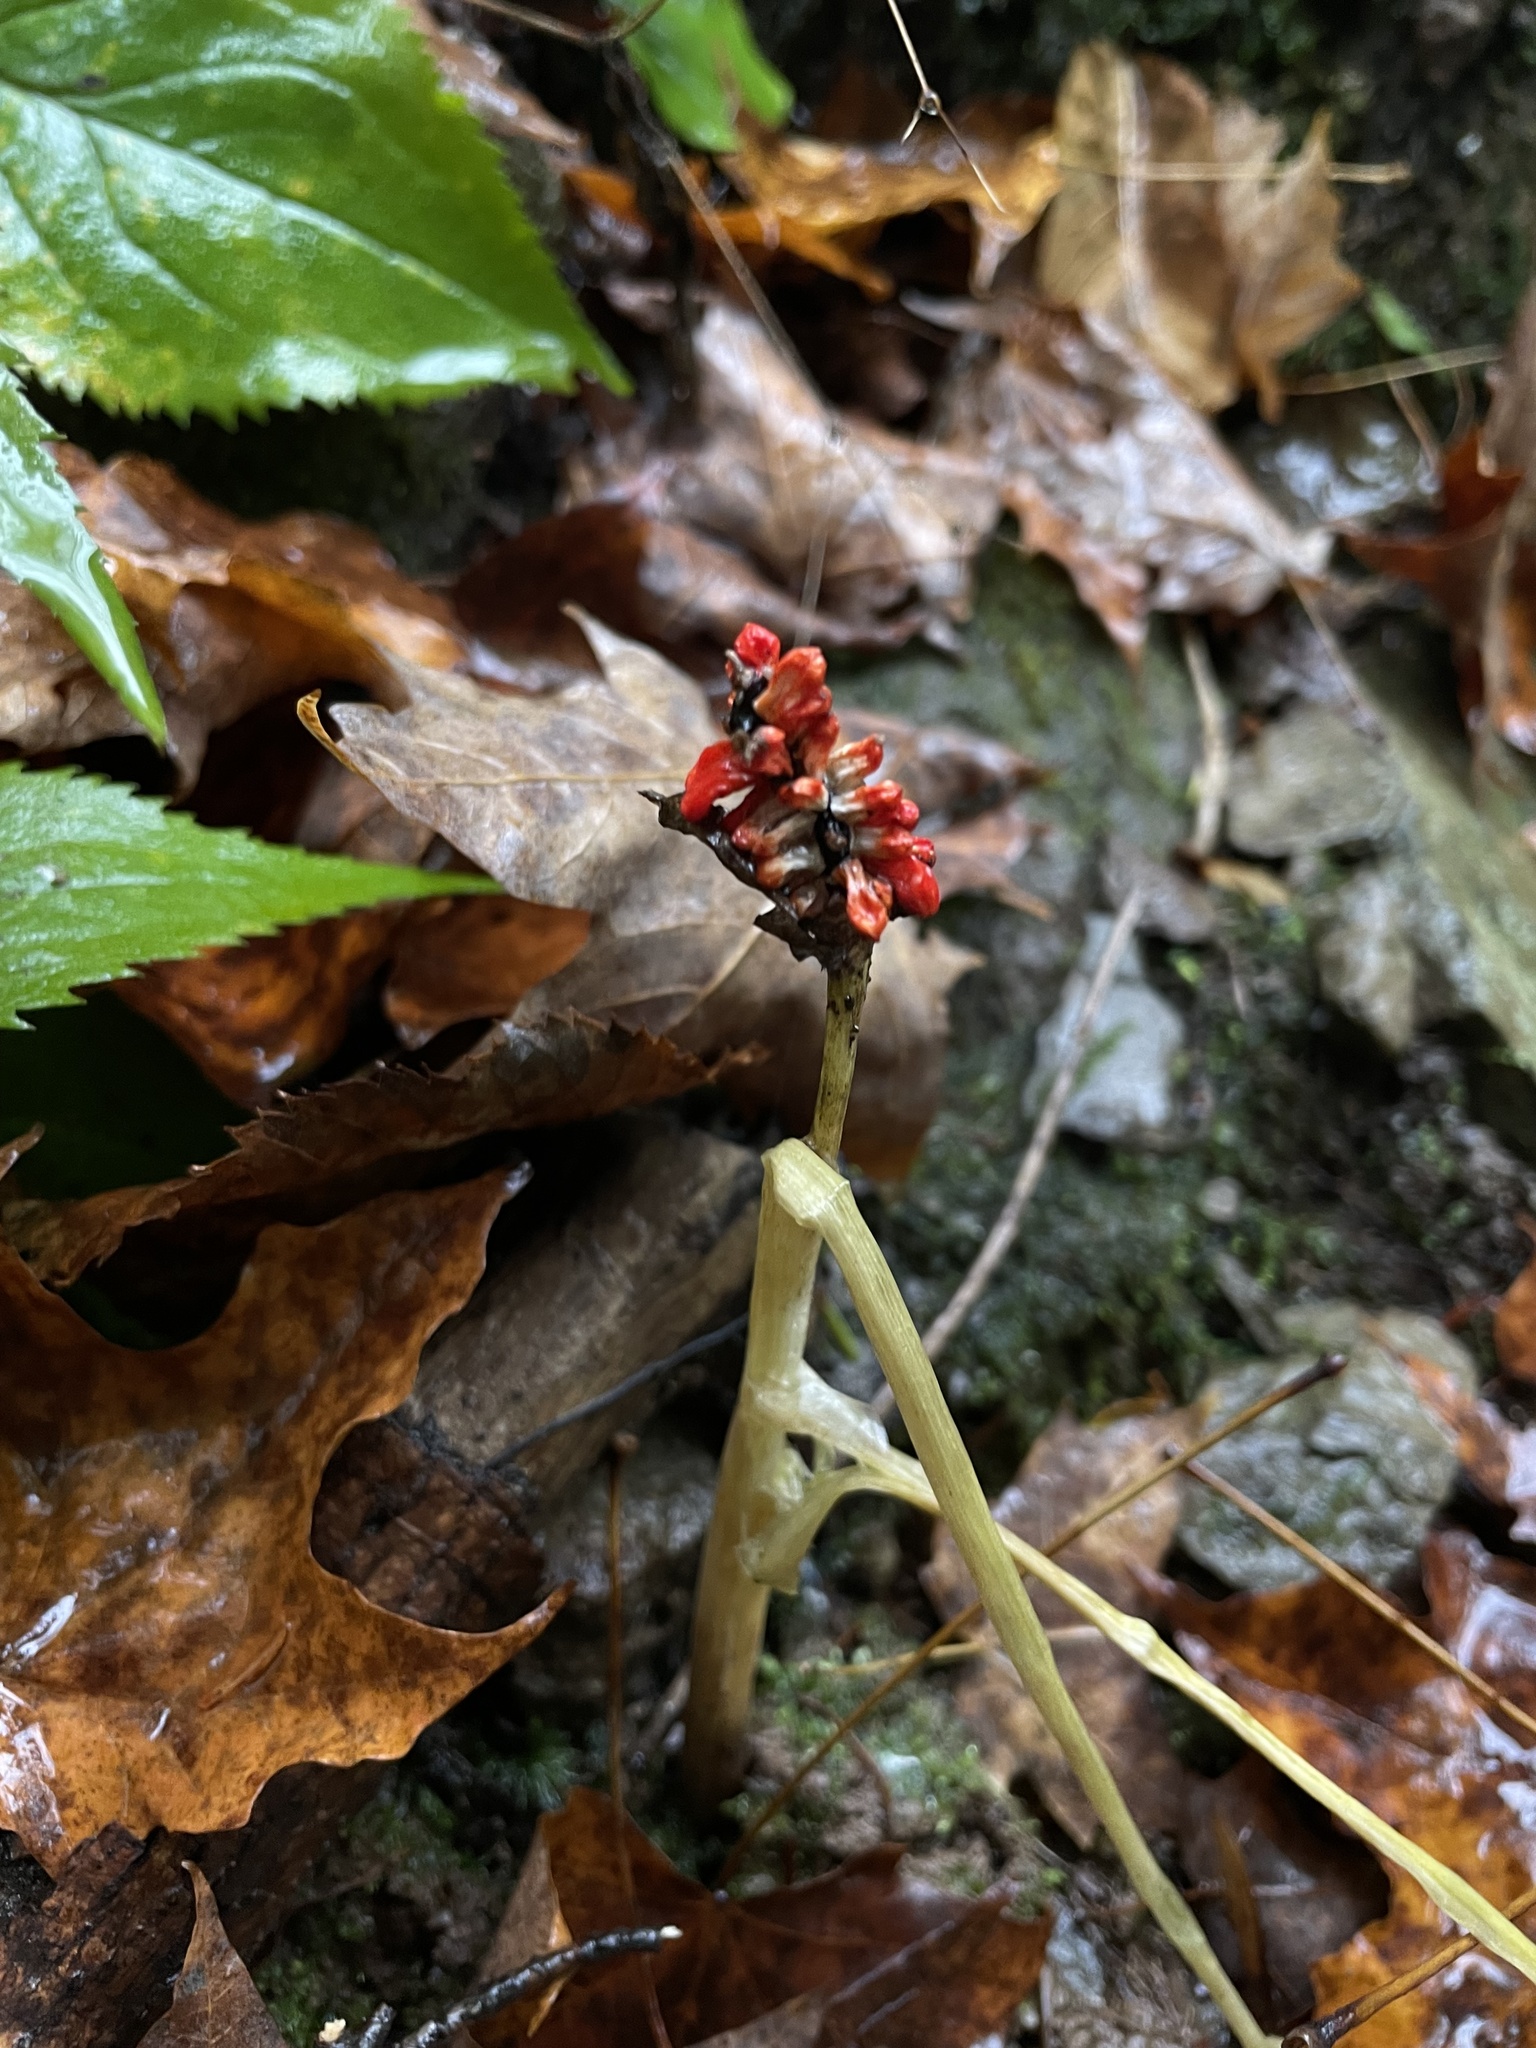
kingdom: Plantae
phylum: Tracheophyta
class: Liliopsida
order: Alismatales
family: Araceae
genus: Arisaema
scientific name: Arisaema triphyllum
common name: Jack-in-the-pulpit
